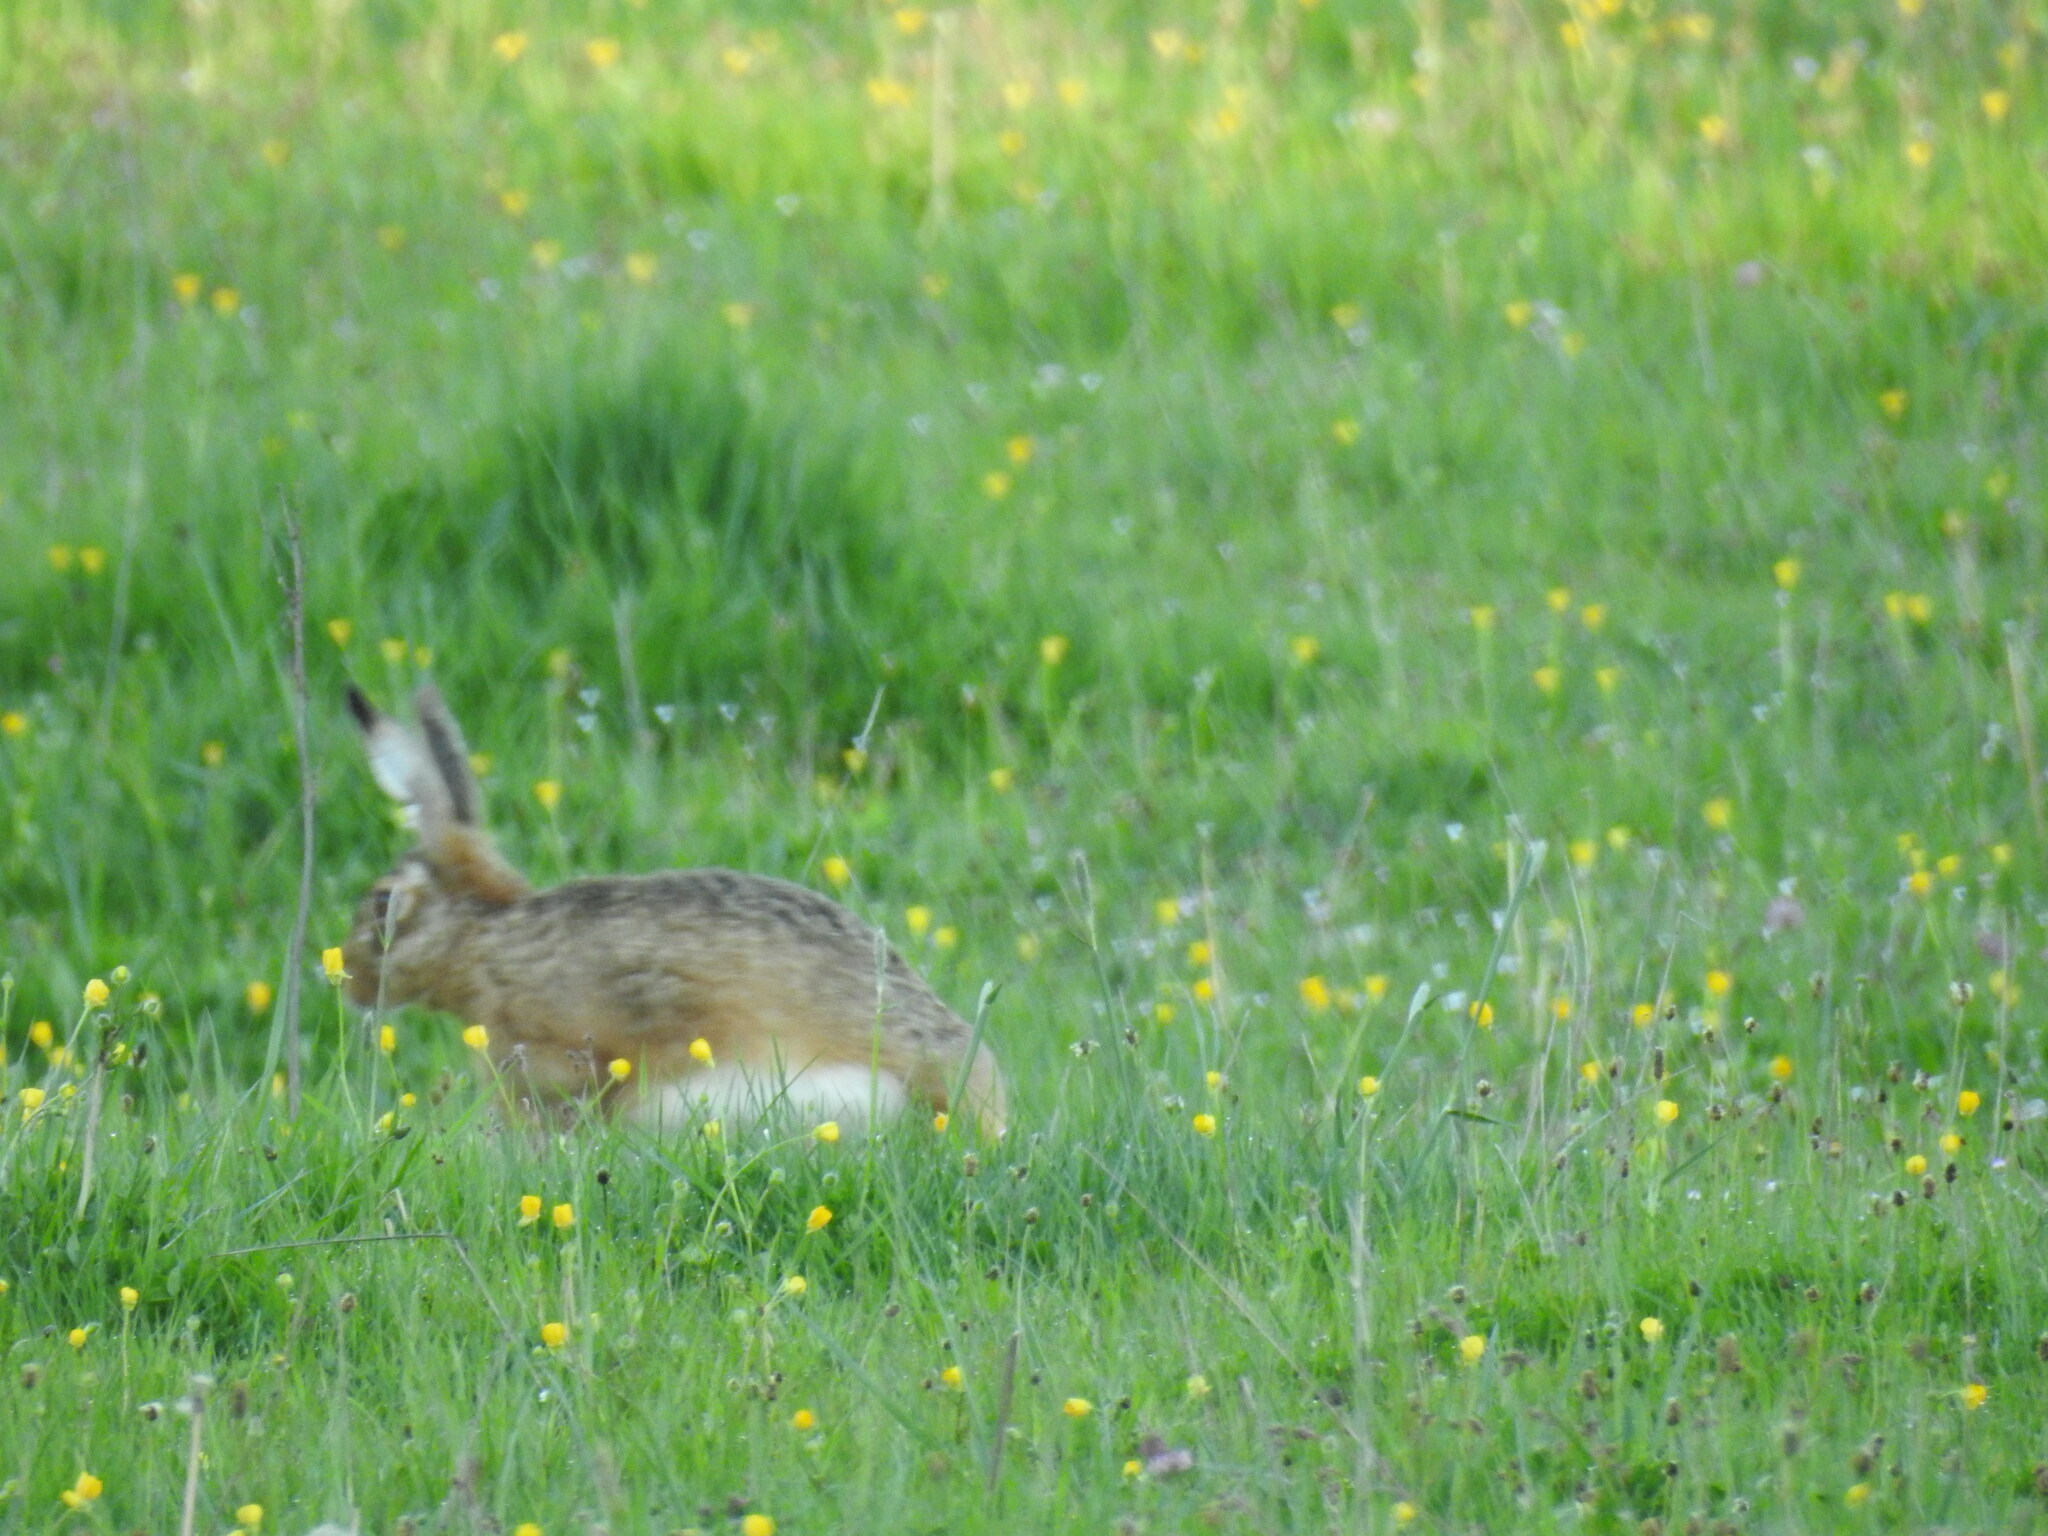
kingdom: Animalia
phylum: Chordata
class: Mammalia
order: Lagomorpha
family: Leporidae
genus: Lepus
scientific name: Lepus europaeus
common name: European hare
